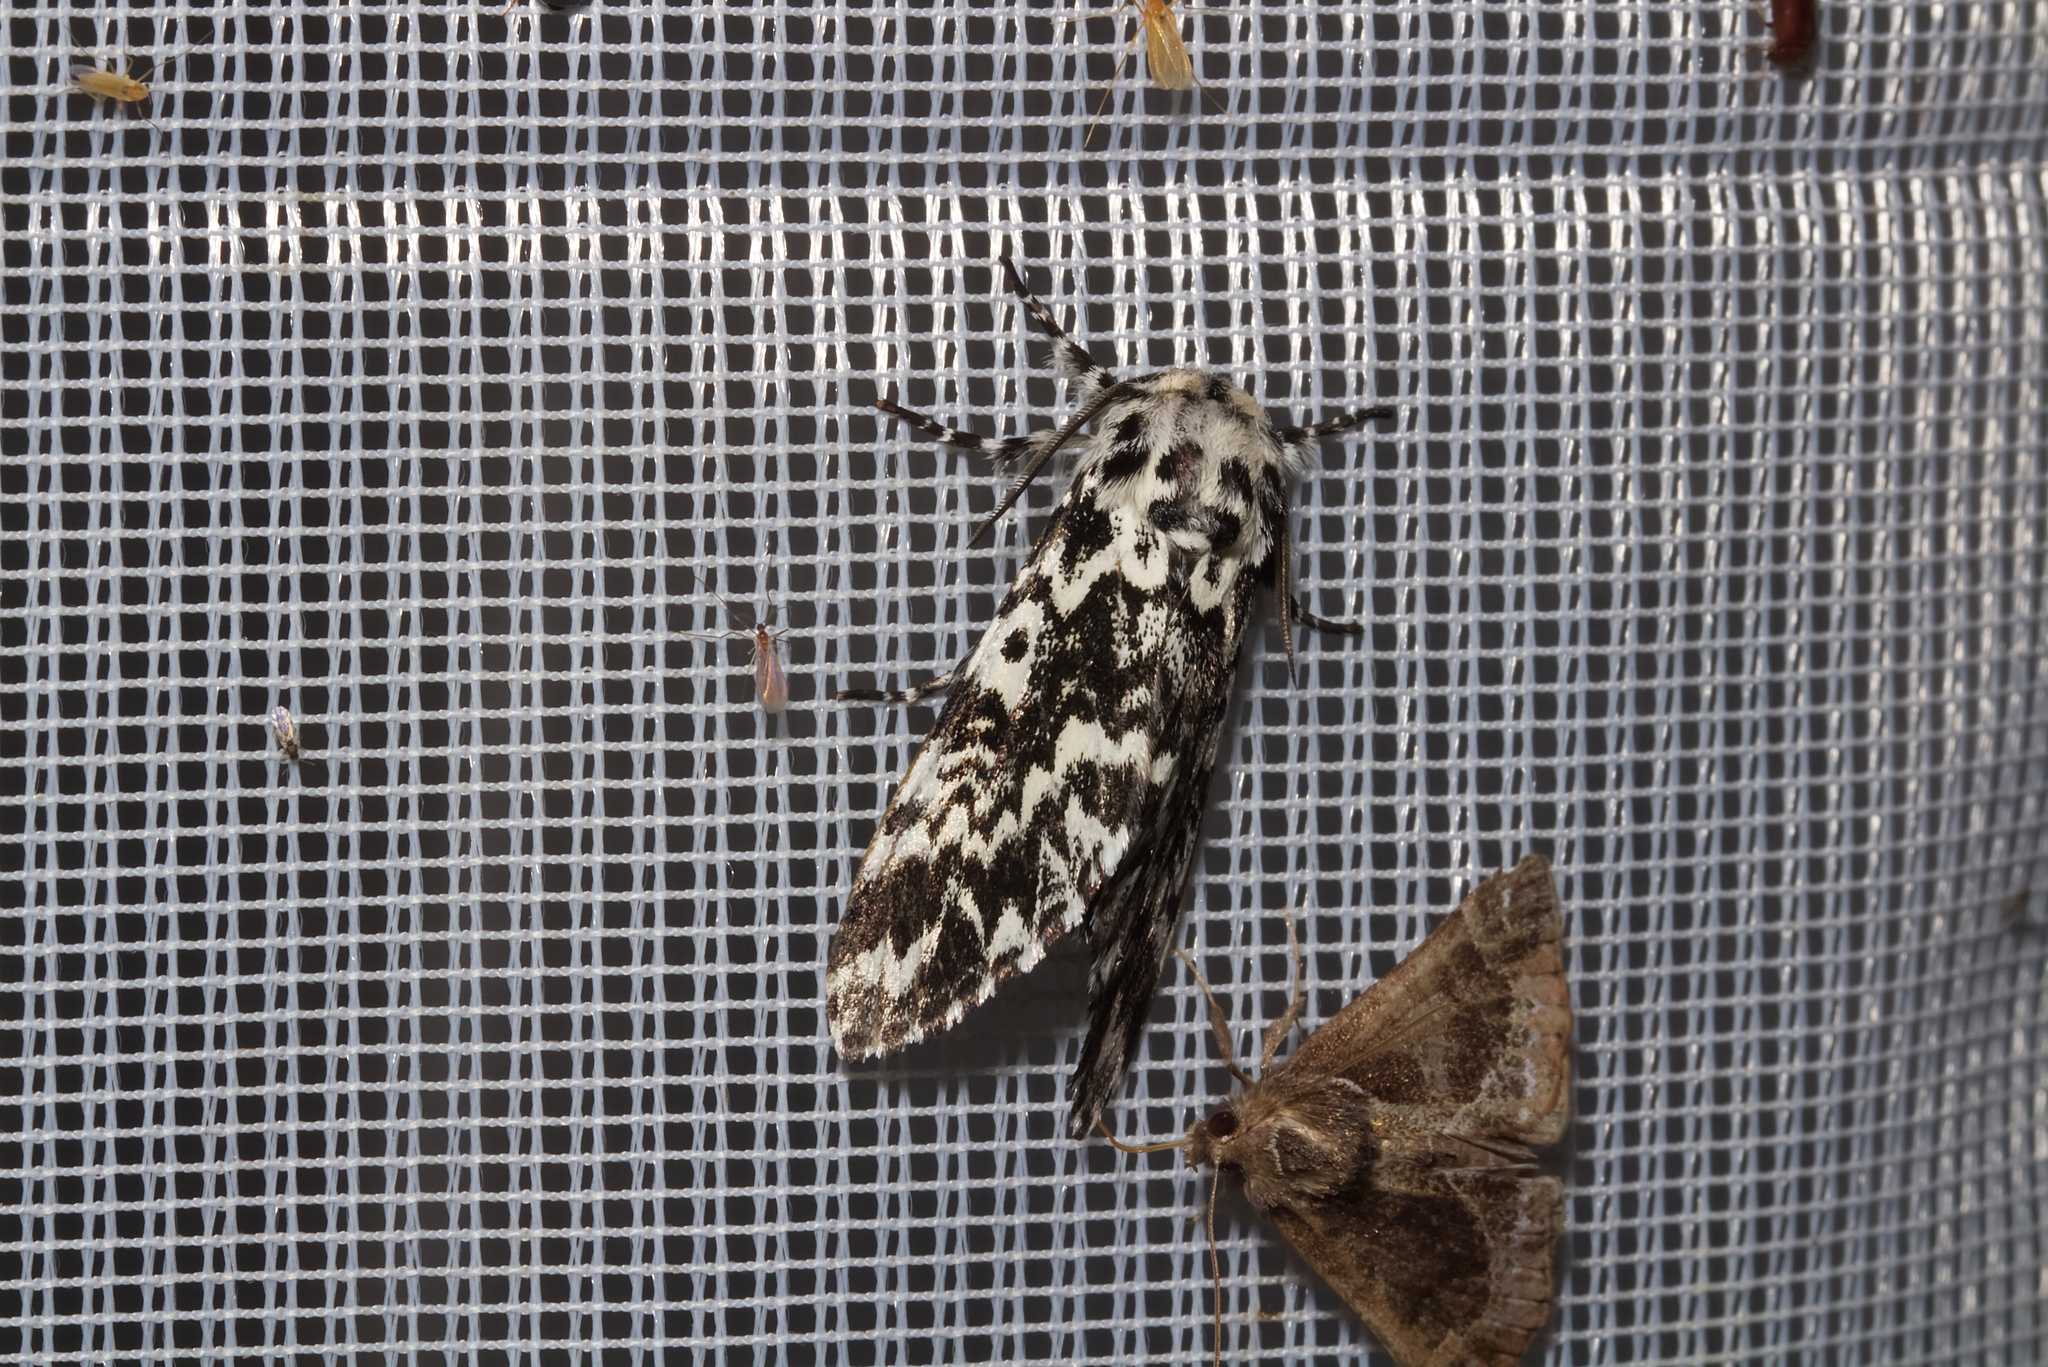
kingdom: Animalia
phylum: Arthropoda
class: Insecta
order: Lepidoptera
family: Noctuidae
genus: Panthea
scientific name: Panthea coenobita
